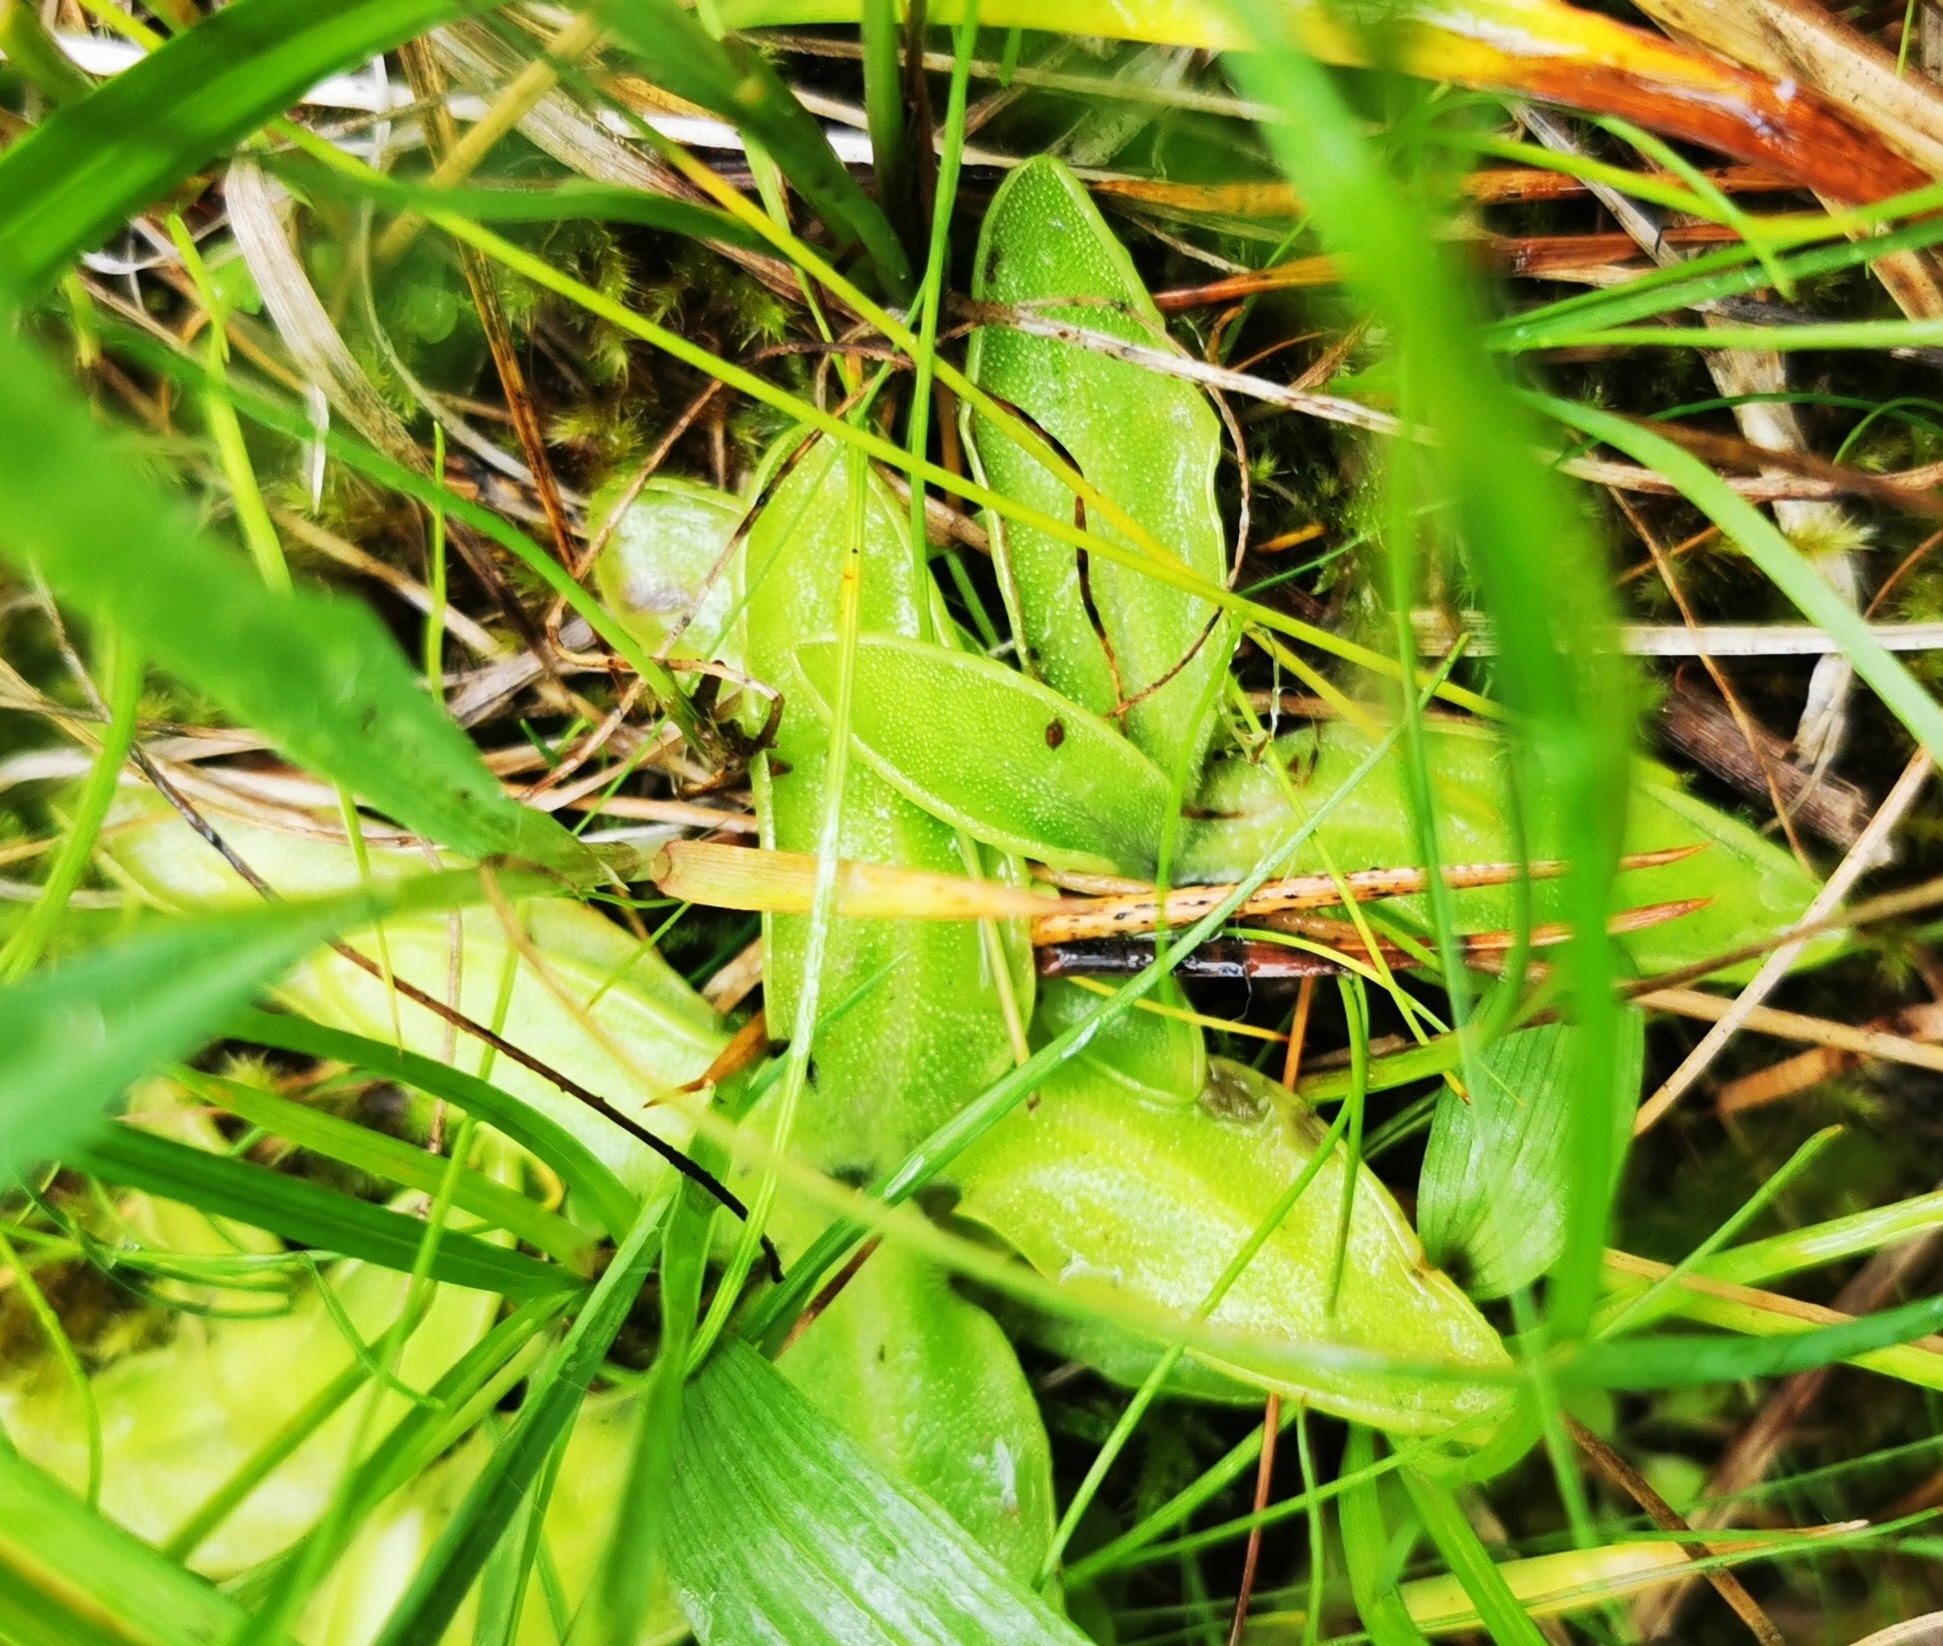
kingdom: Plantae
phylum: Tracheophyta
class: Magnoliopsida
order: Lamiales
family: Lentibulariaceae
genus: Pinguicula
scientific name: Pinguicula vulgaris
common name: Common butterwort
